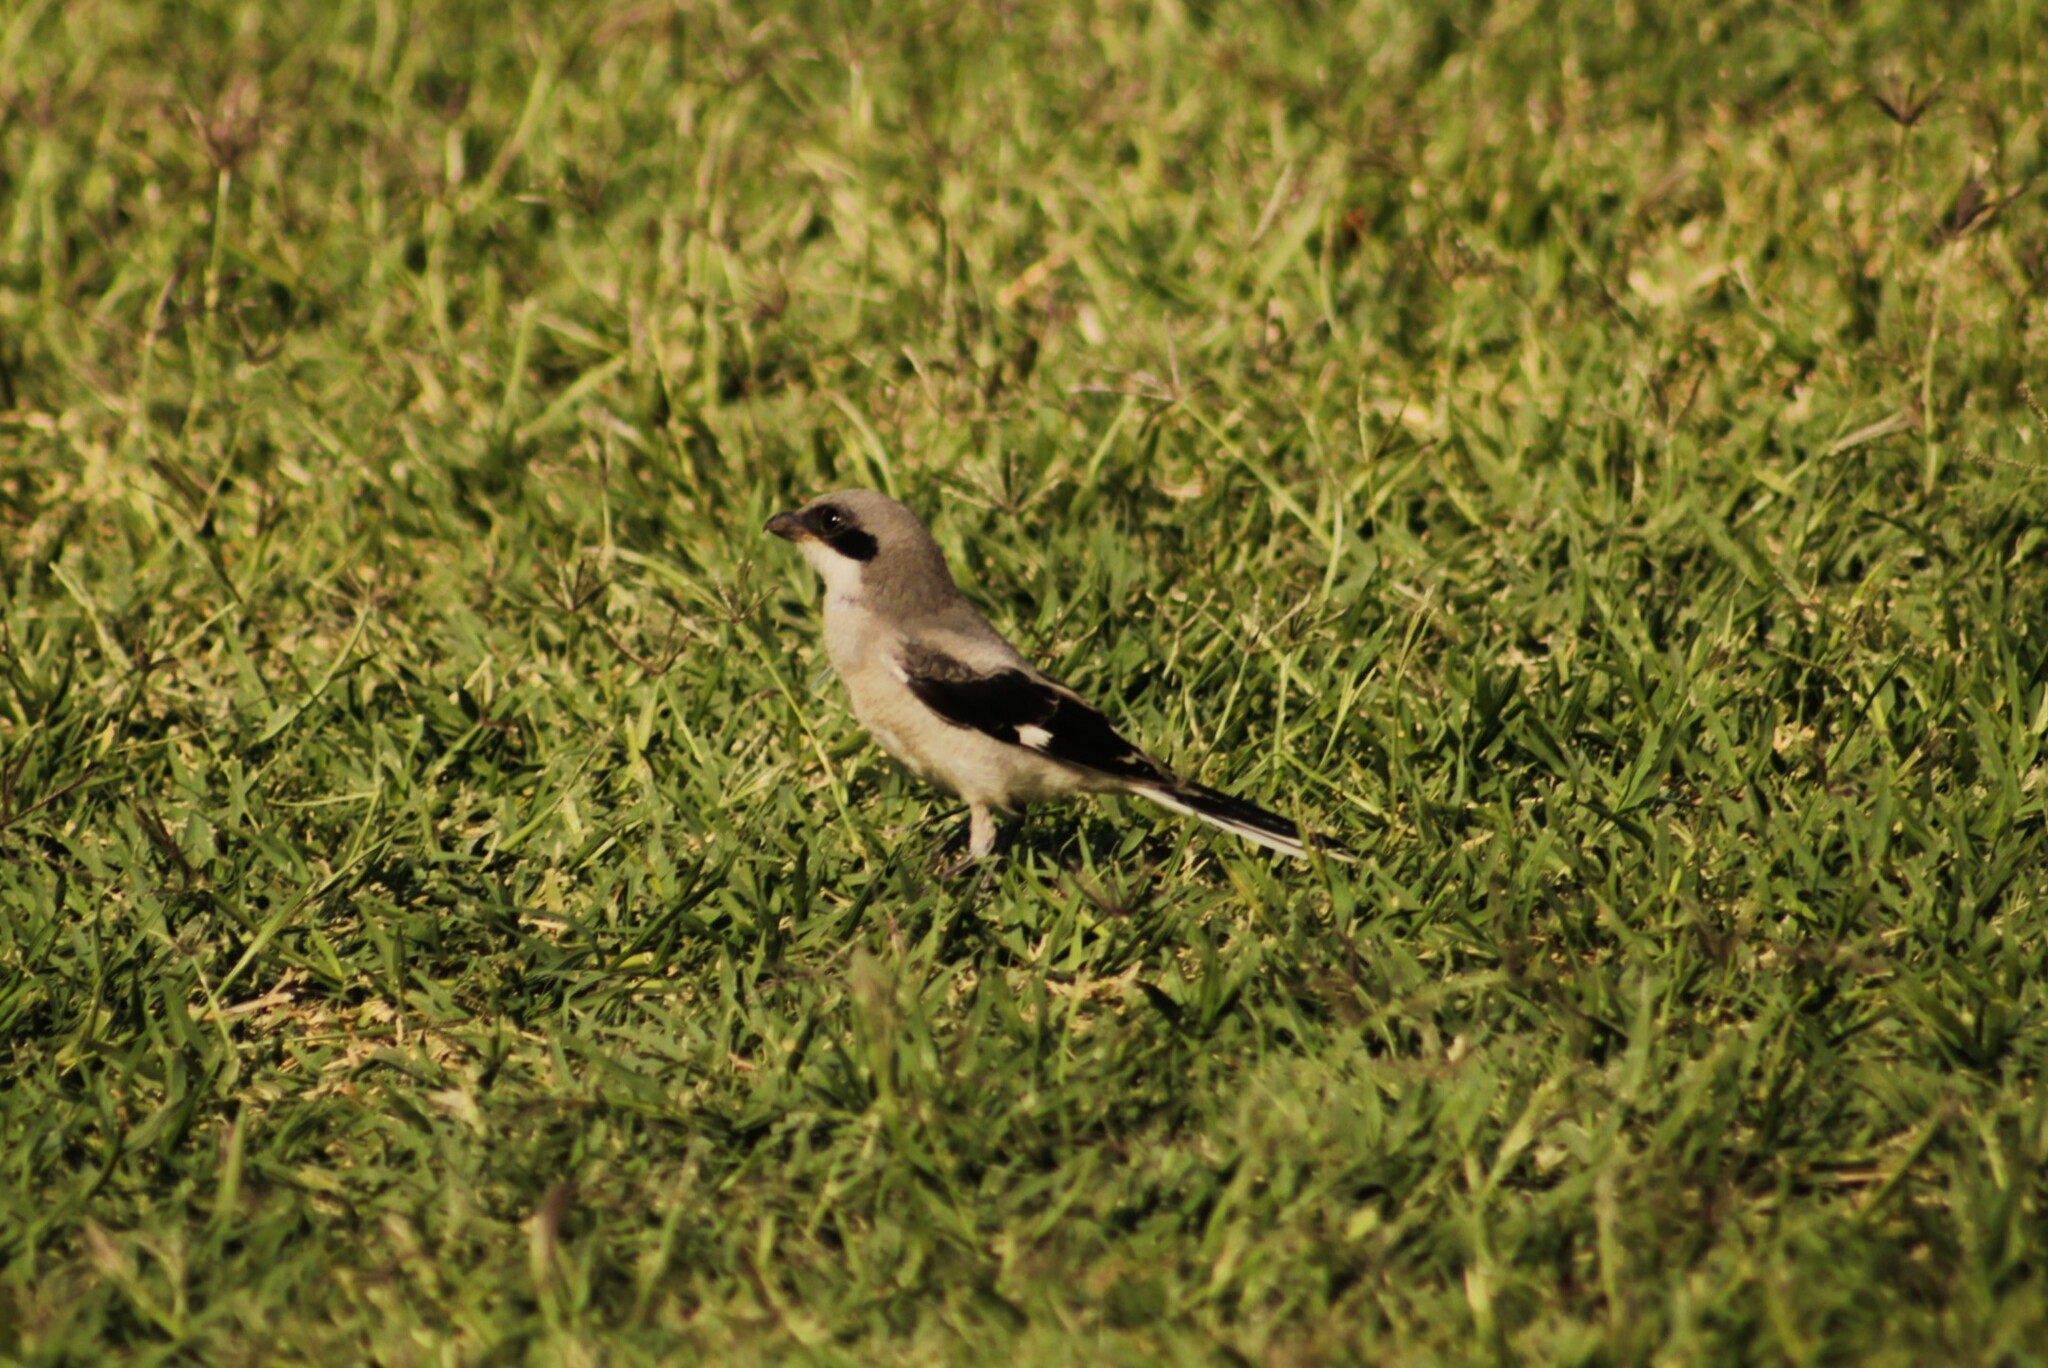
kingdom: Animalia
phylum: Chordata
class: Aves
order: Passeriformes
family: Laniidae
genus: Lanius
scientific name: Lanius ludovicianus
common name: Loggerhead shrike
